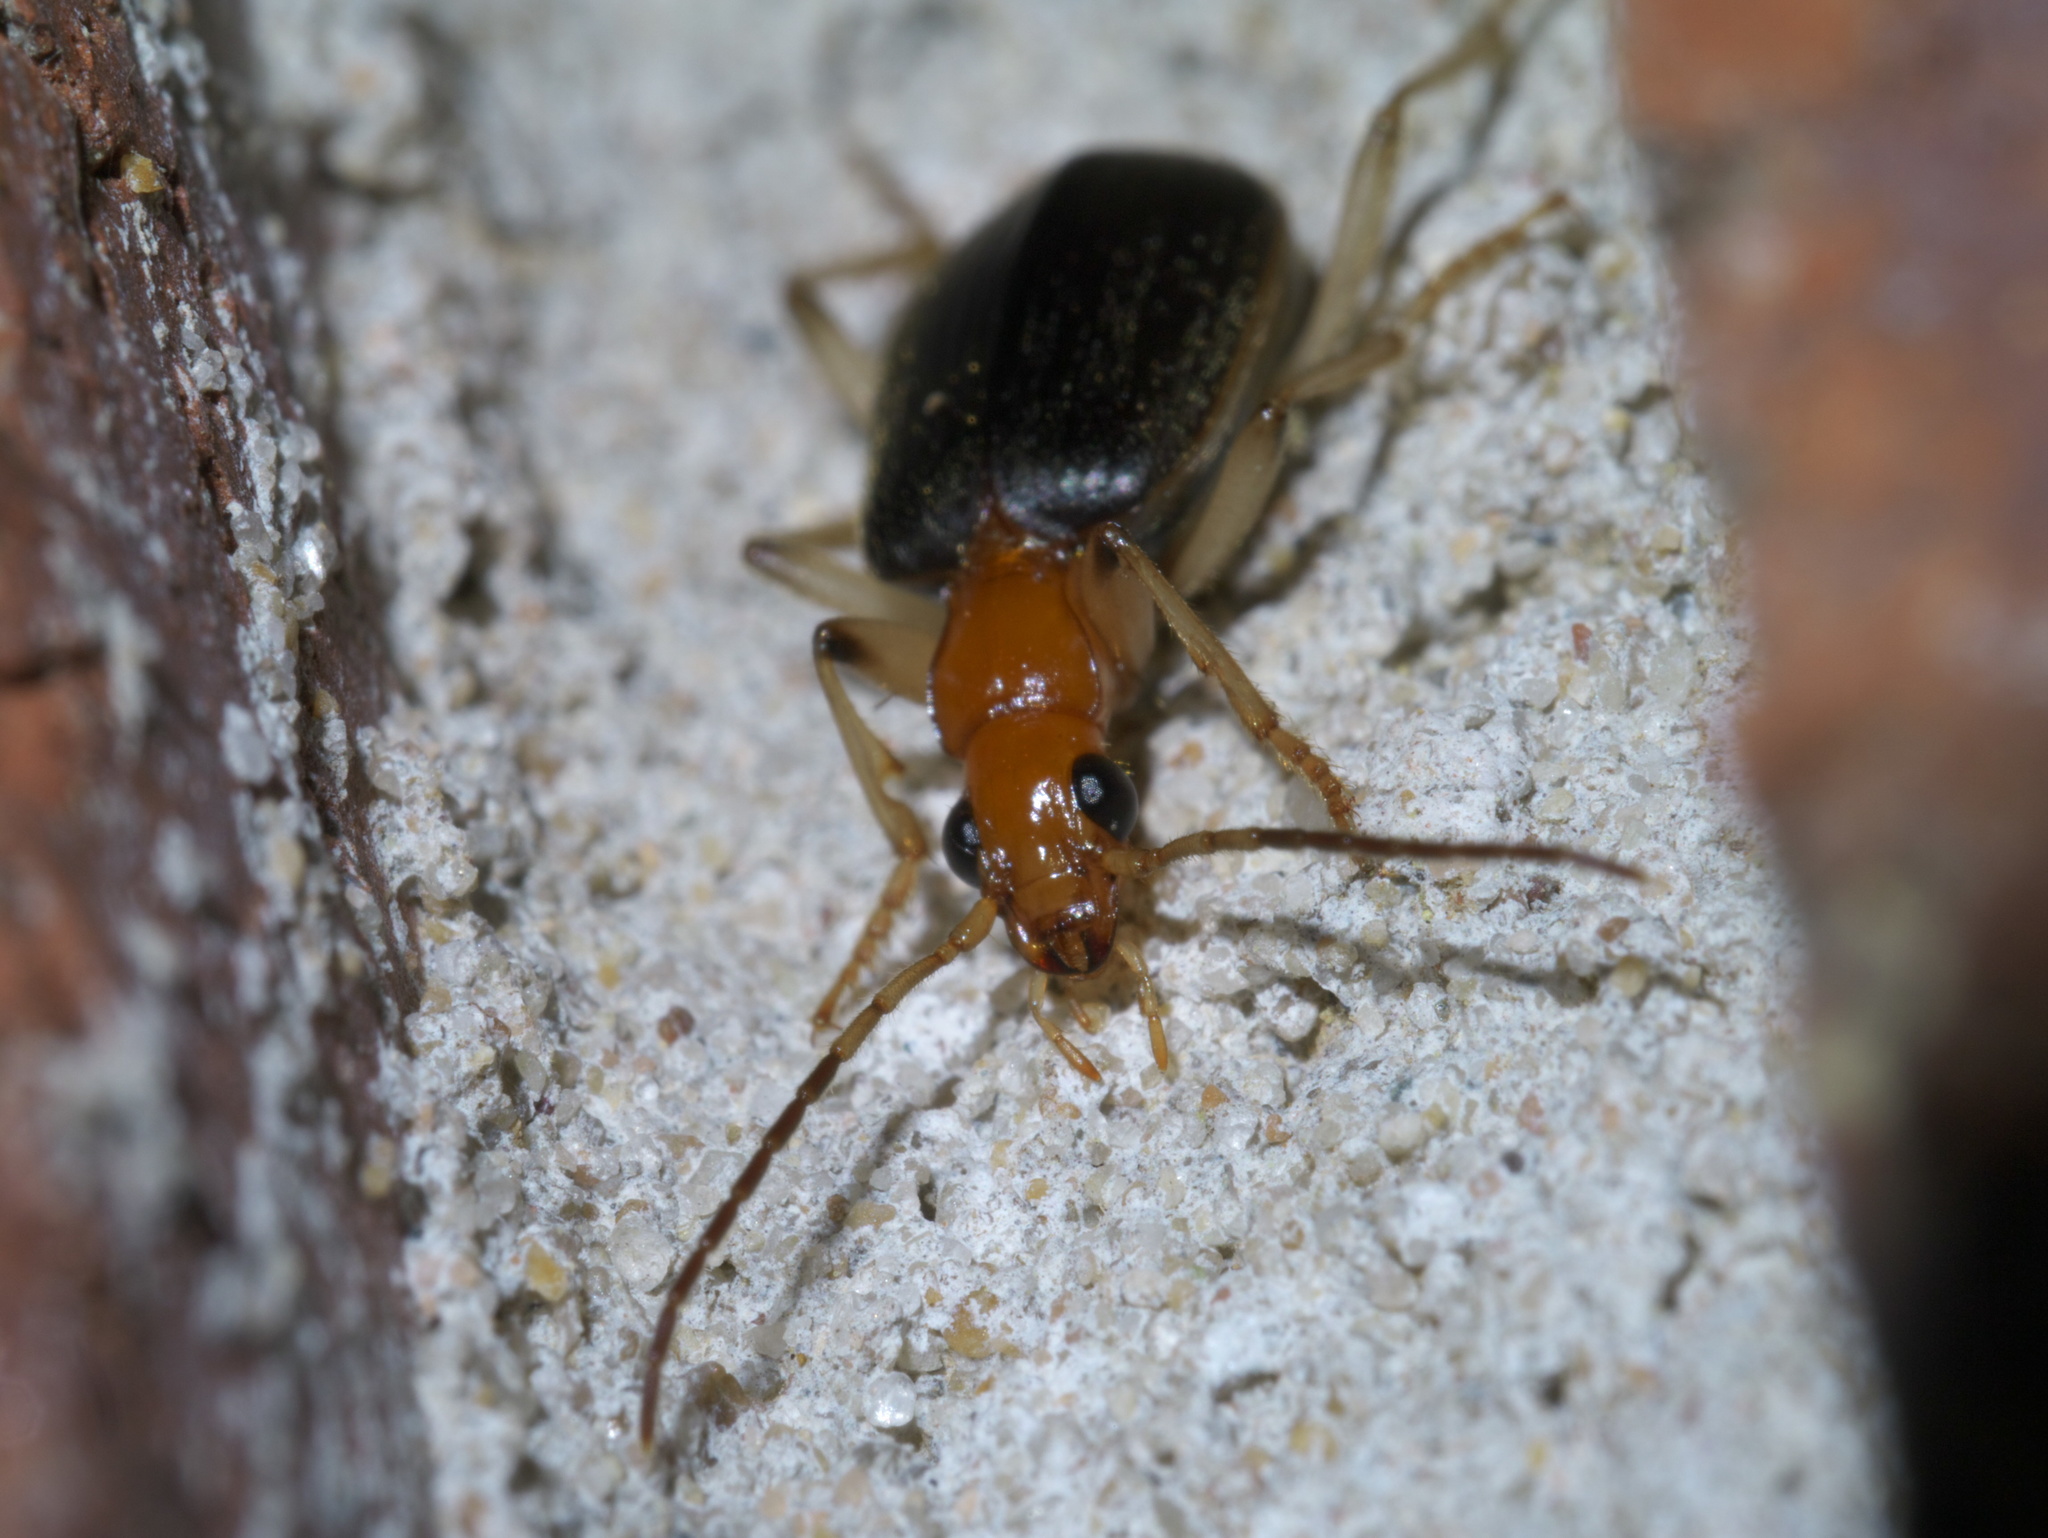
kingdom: Animalia
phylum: Arthropoda
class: Insecta
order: Coleoptera
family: Carabidae
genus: Brachinus
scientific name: Brachinus adustipennis
